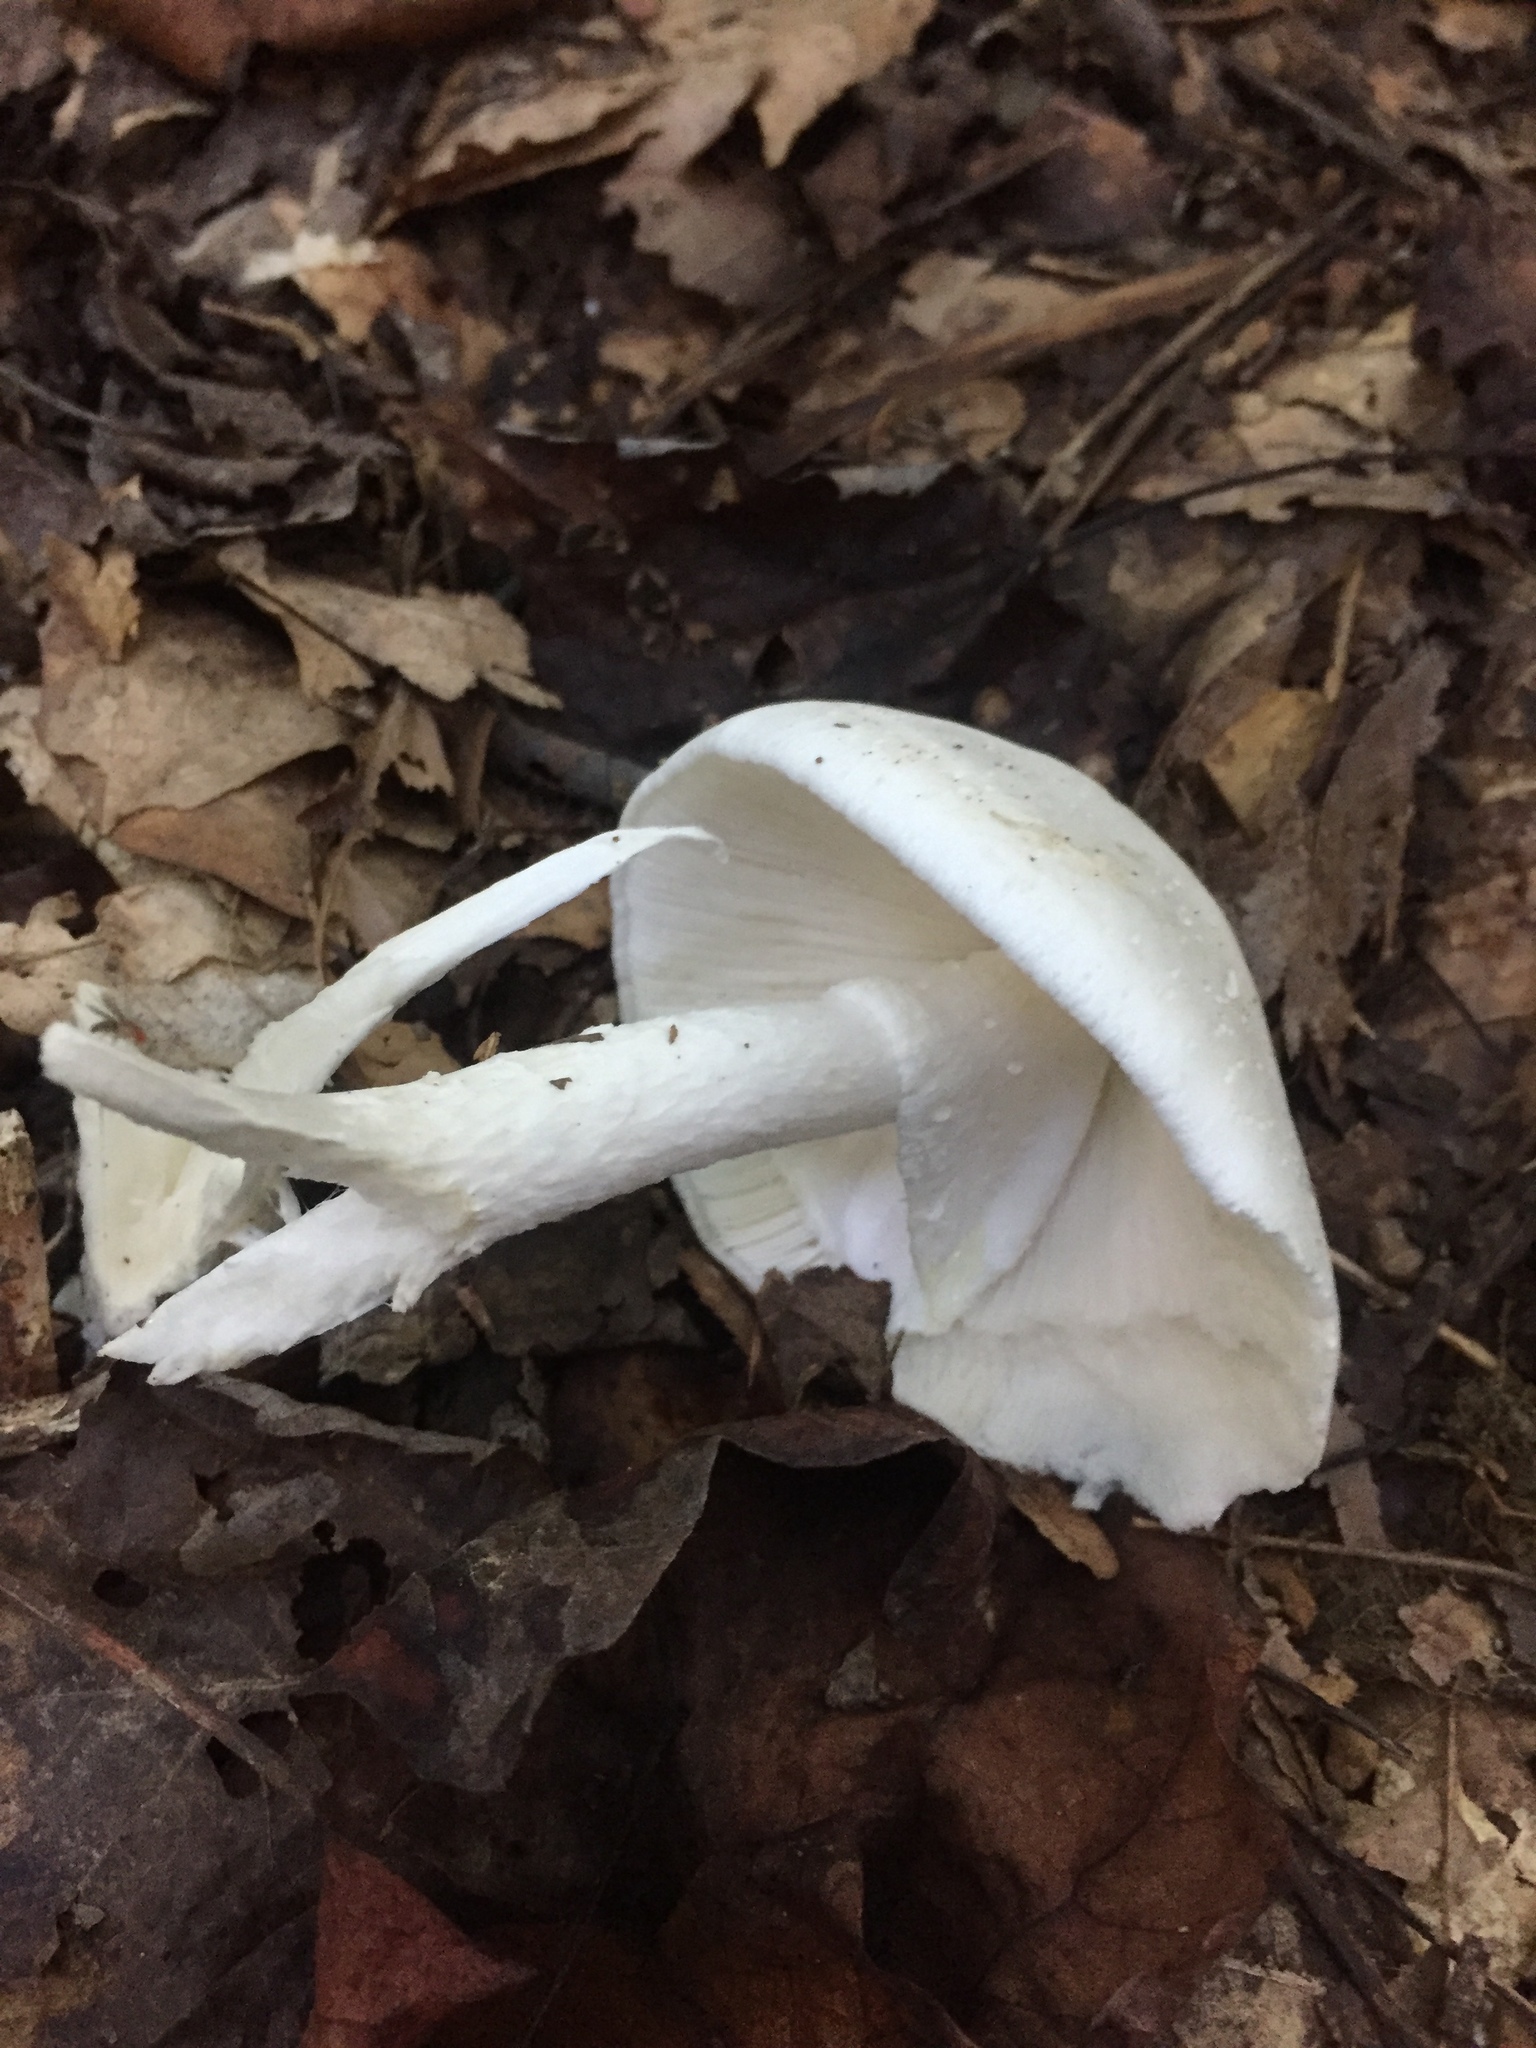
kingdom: Fungi
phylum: Basidiomycota
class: Agaricomycetes
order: Agaricales
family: Amanitaceae
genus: Amanita
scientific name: Amanita bisporigera
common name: Eastern north american destroying angel
